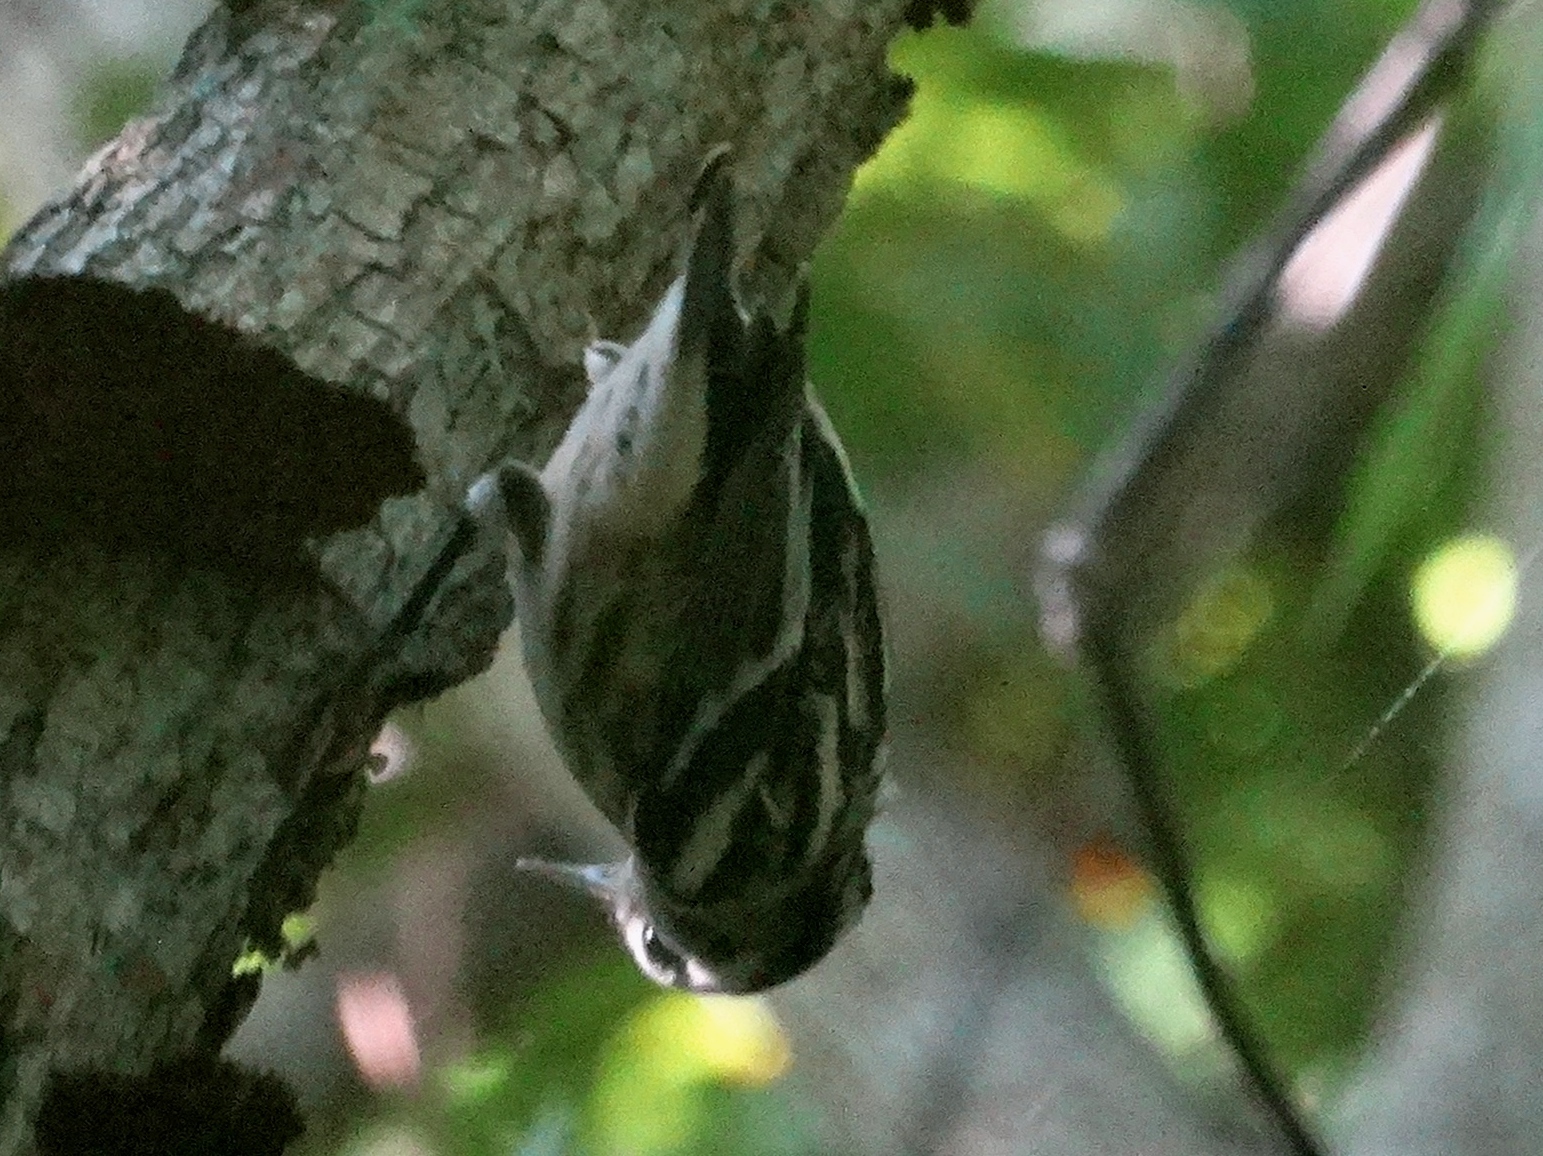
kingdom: Animalia
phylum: Chordata
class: Aves
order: Passeriformes
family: Parulidae
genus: Mniotilta
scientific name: Mniotilta varia
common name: Black-and-white warbler
